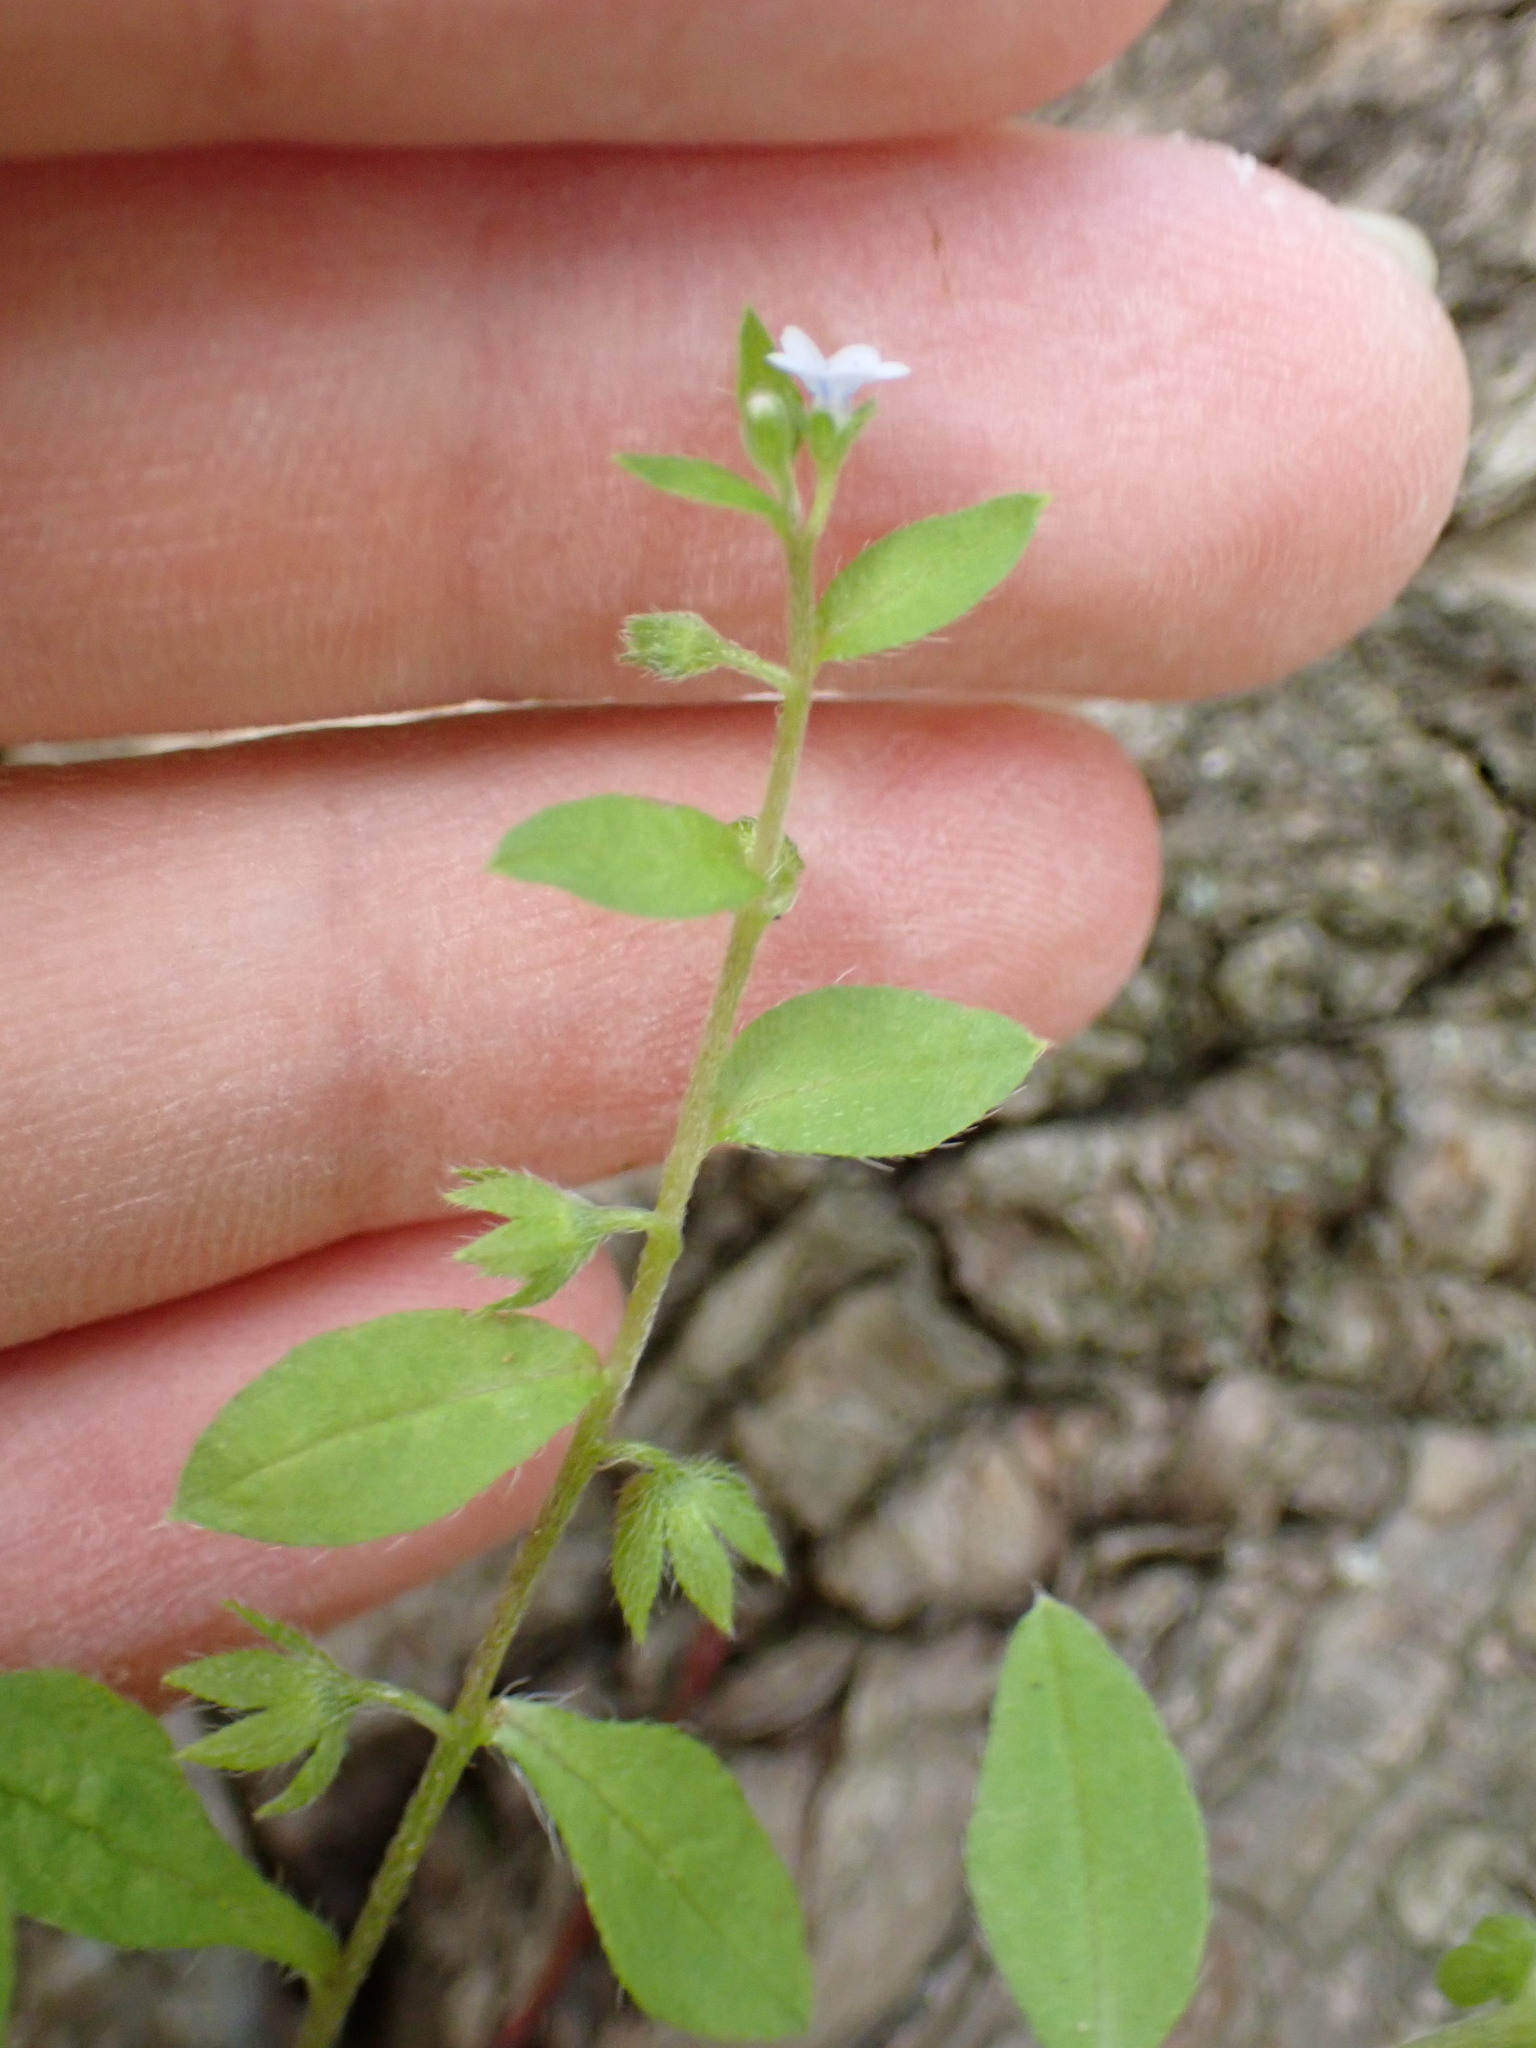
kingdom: Plantae
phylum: Tracheophyta
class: Magnoliopsida
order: Boraginales
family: Boraginaceae
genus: Bothriospermum
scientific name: Bothriospermum zeylanicum
